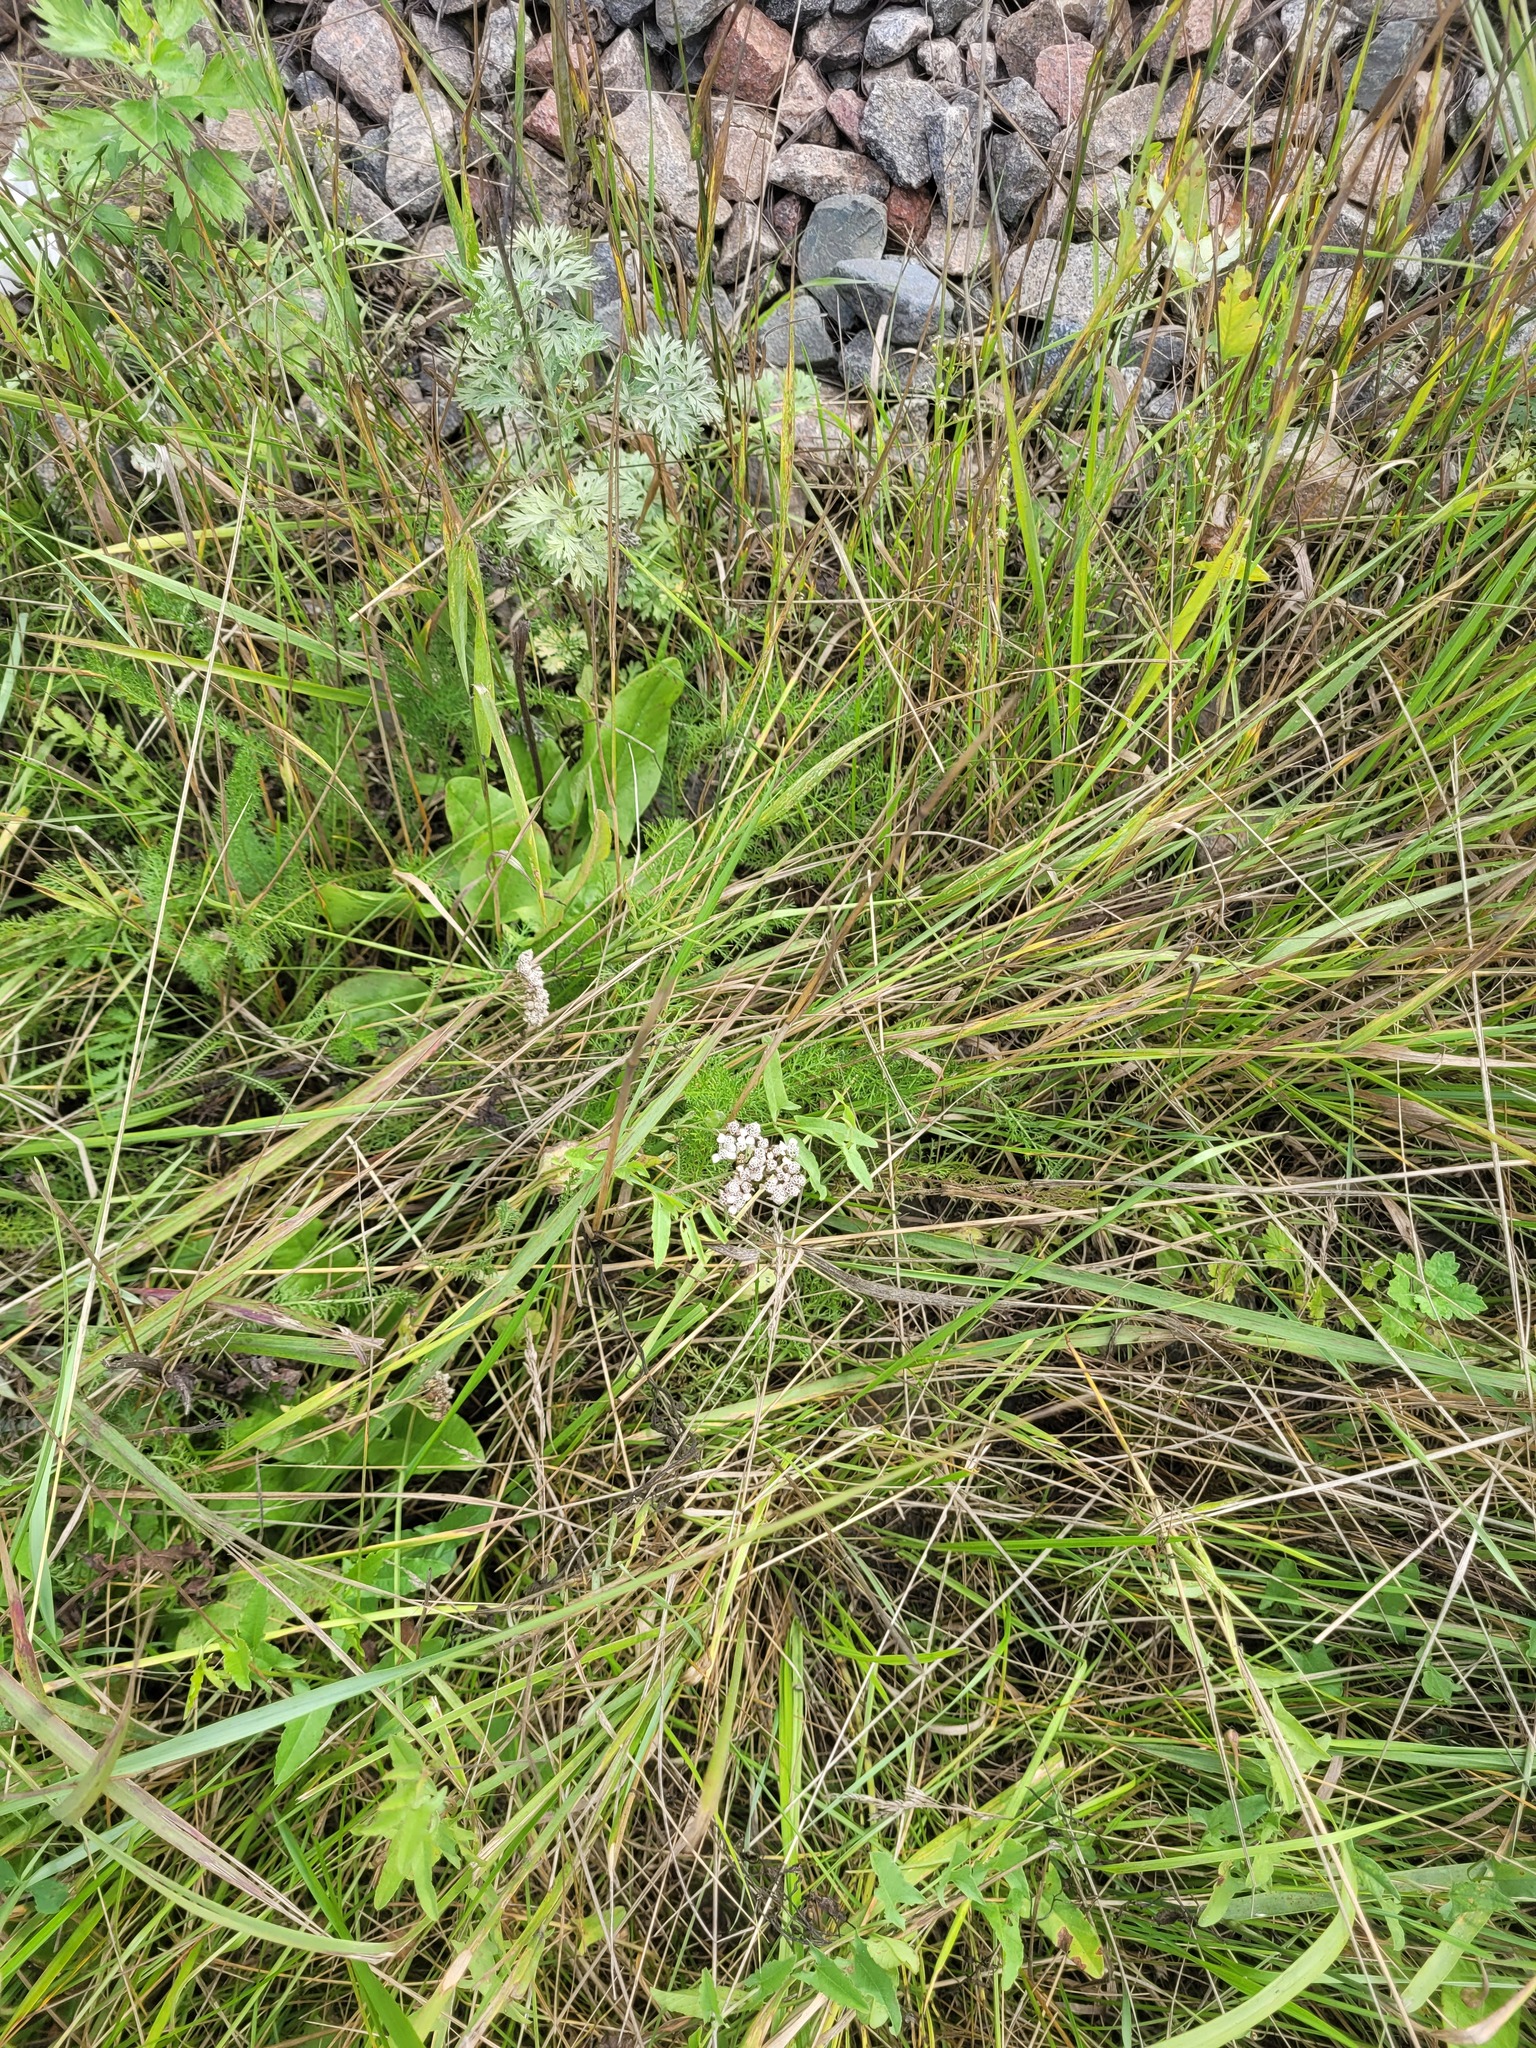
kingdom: Plantae
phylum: Tracheophyta
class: Magnoliopsida
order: Asterales
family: Asteraceae
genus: Achillea
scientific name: Achillea millefolium
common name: Yarrow
